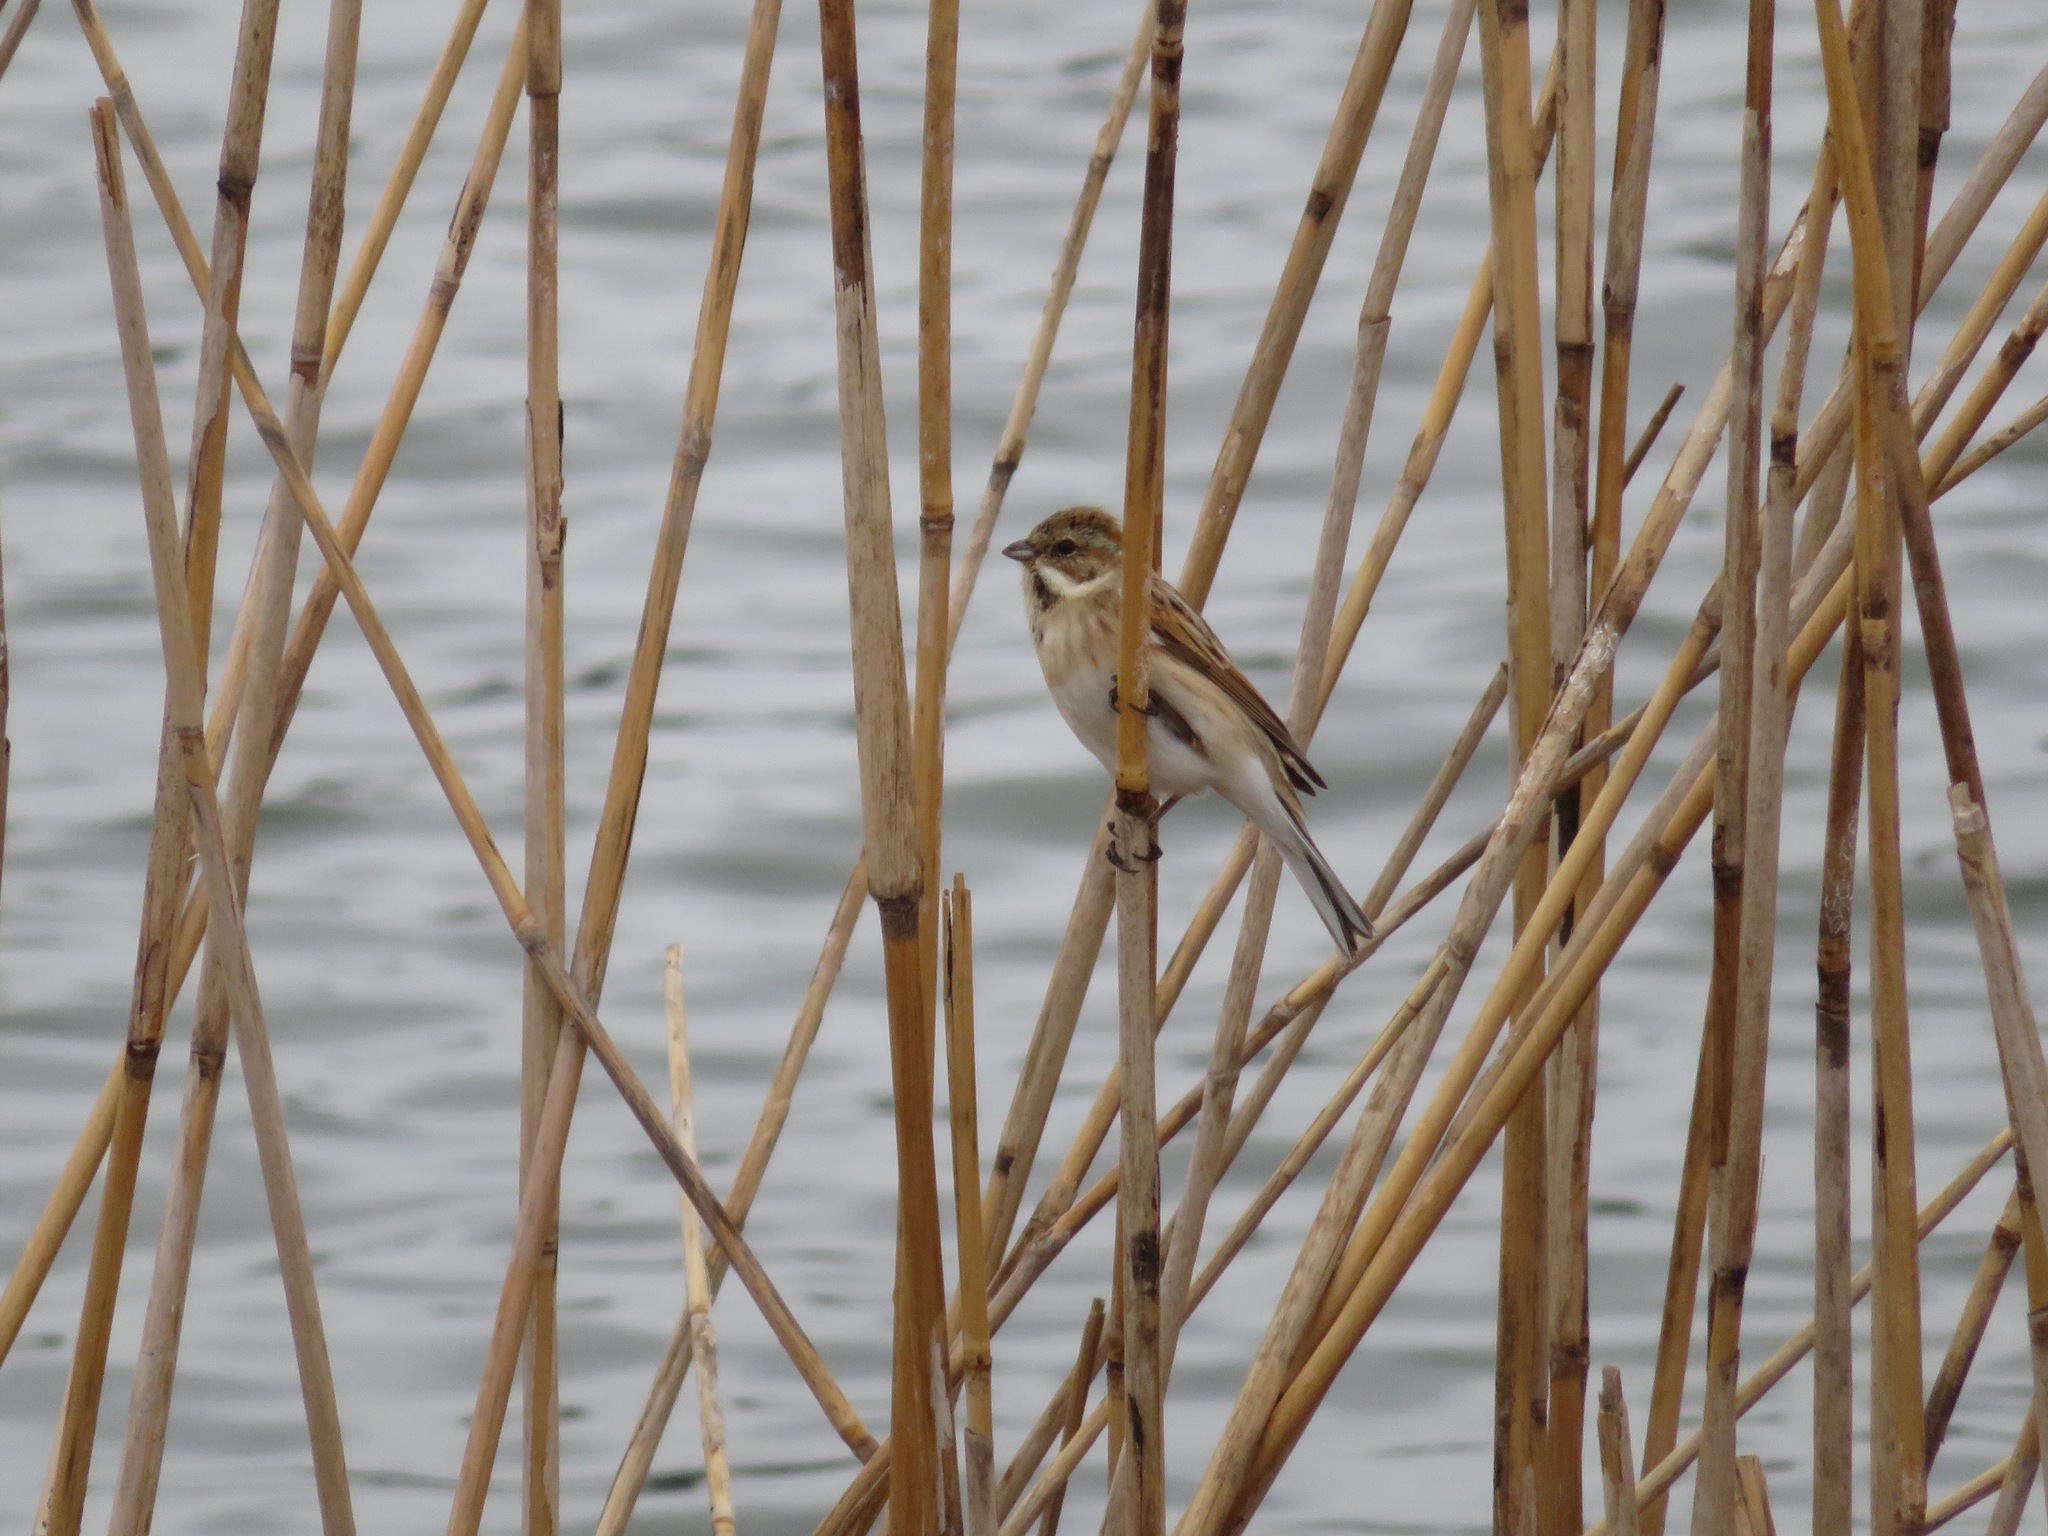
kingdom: Animalia
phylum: Chordata
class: Aves
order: Passeriformes
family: Emberizidae
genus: Emberiza
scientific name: Emberiza schoeniclus
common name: Reed bunting
